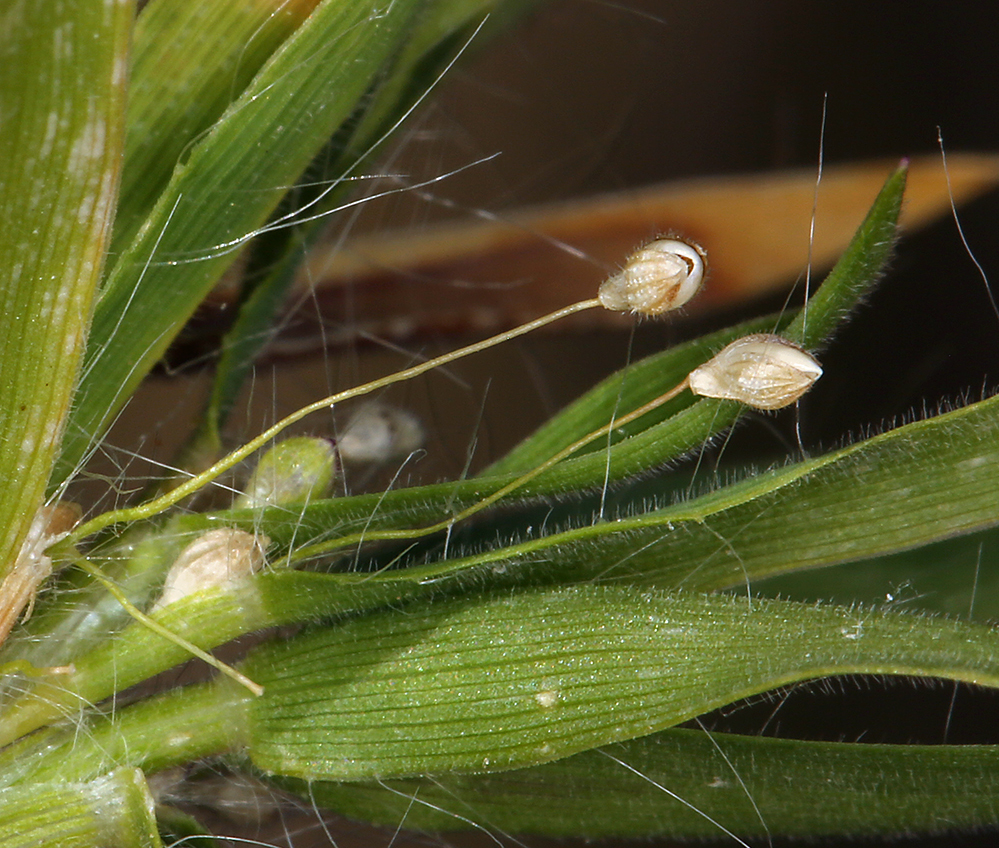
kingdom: Plantae
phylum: Tracheophyta
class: Liliopsida
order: Poales
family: Poaceae
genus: Dichanthelium
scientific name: Dichanthelium lanuginosum
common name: Woolly panicgrass
